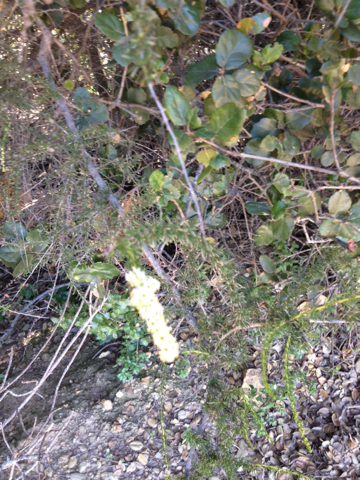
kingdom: Plantae
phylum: Tracheophyta
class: Magnoliopsida
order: Rosales
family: Rosaceae
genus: Adenostoma
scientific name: Adenostoma fasciculatum
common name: Chamise
